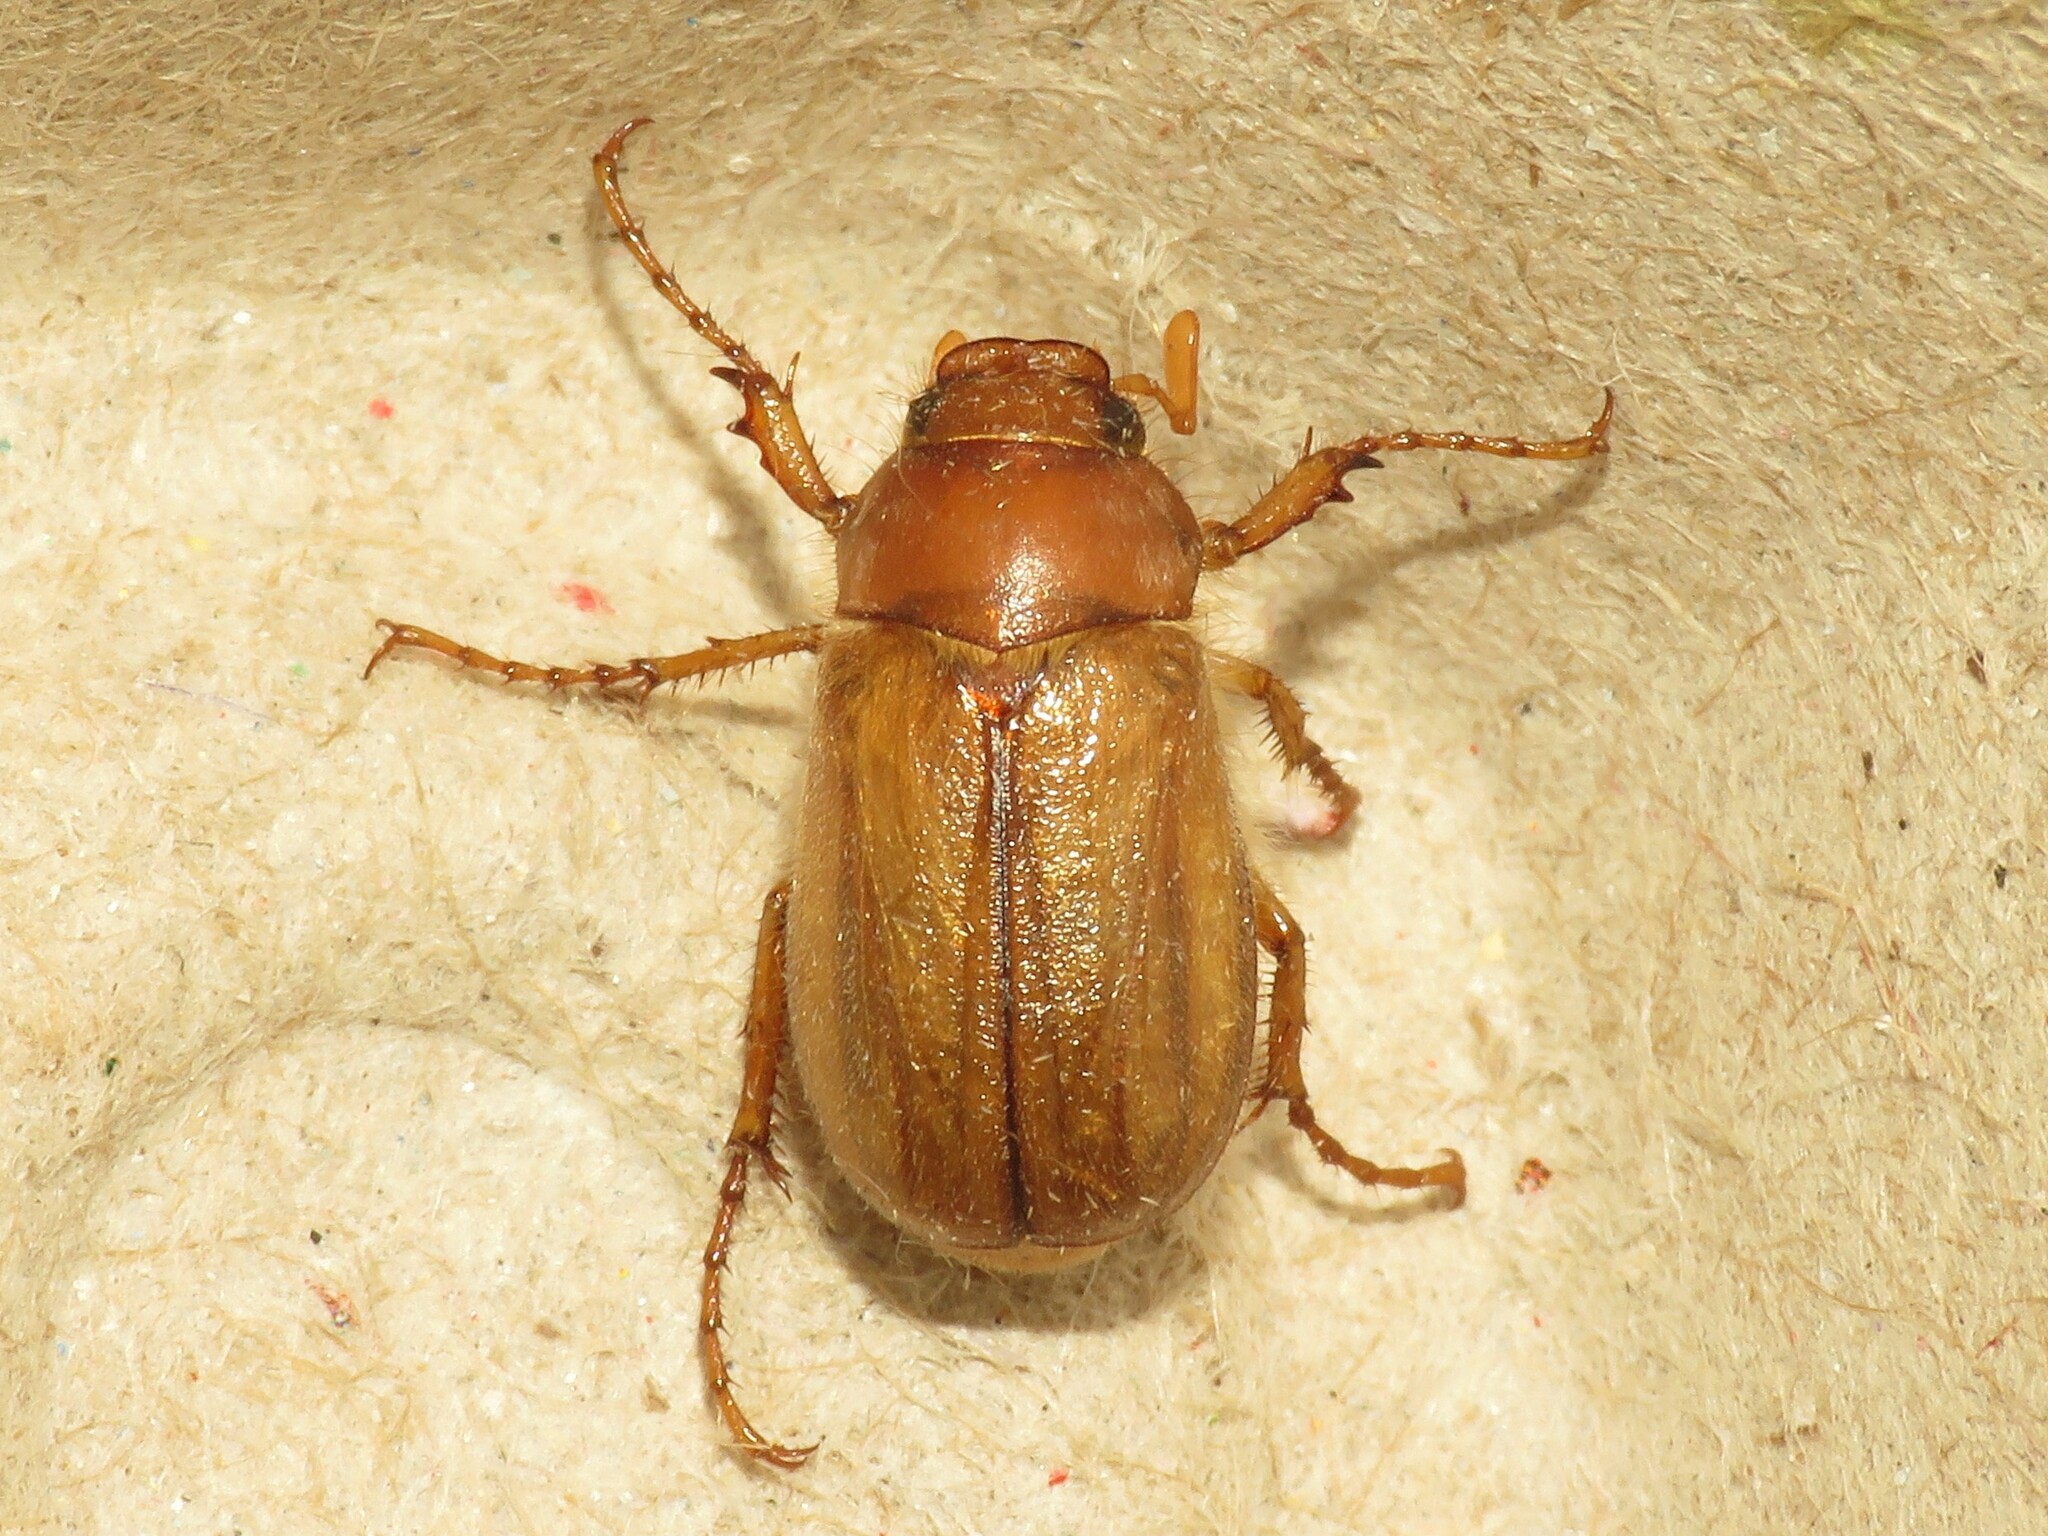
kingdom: Animalia
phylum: Arthropoda
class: Insecta
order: Coleoptera
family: Scarabaeidae
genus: Amphimallon
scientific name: Amphimallon majale
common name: European chafer
